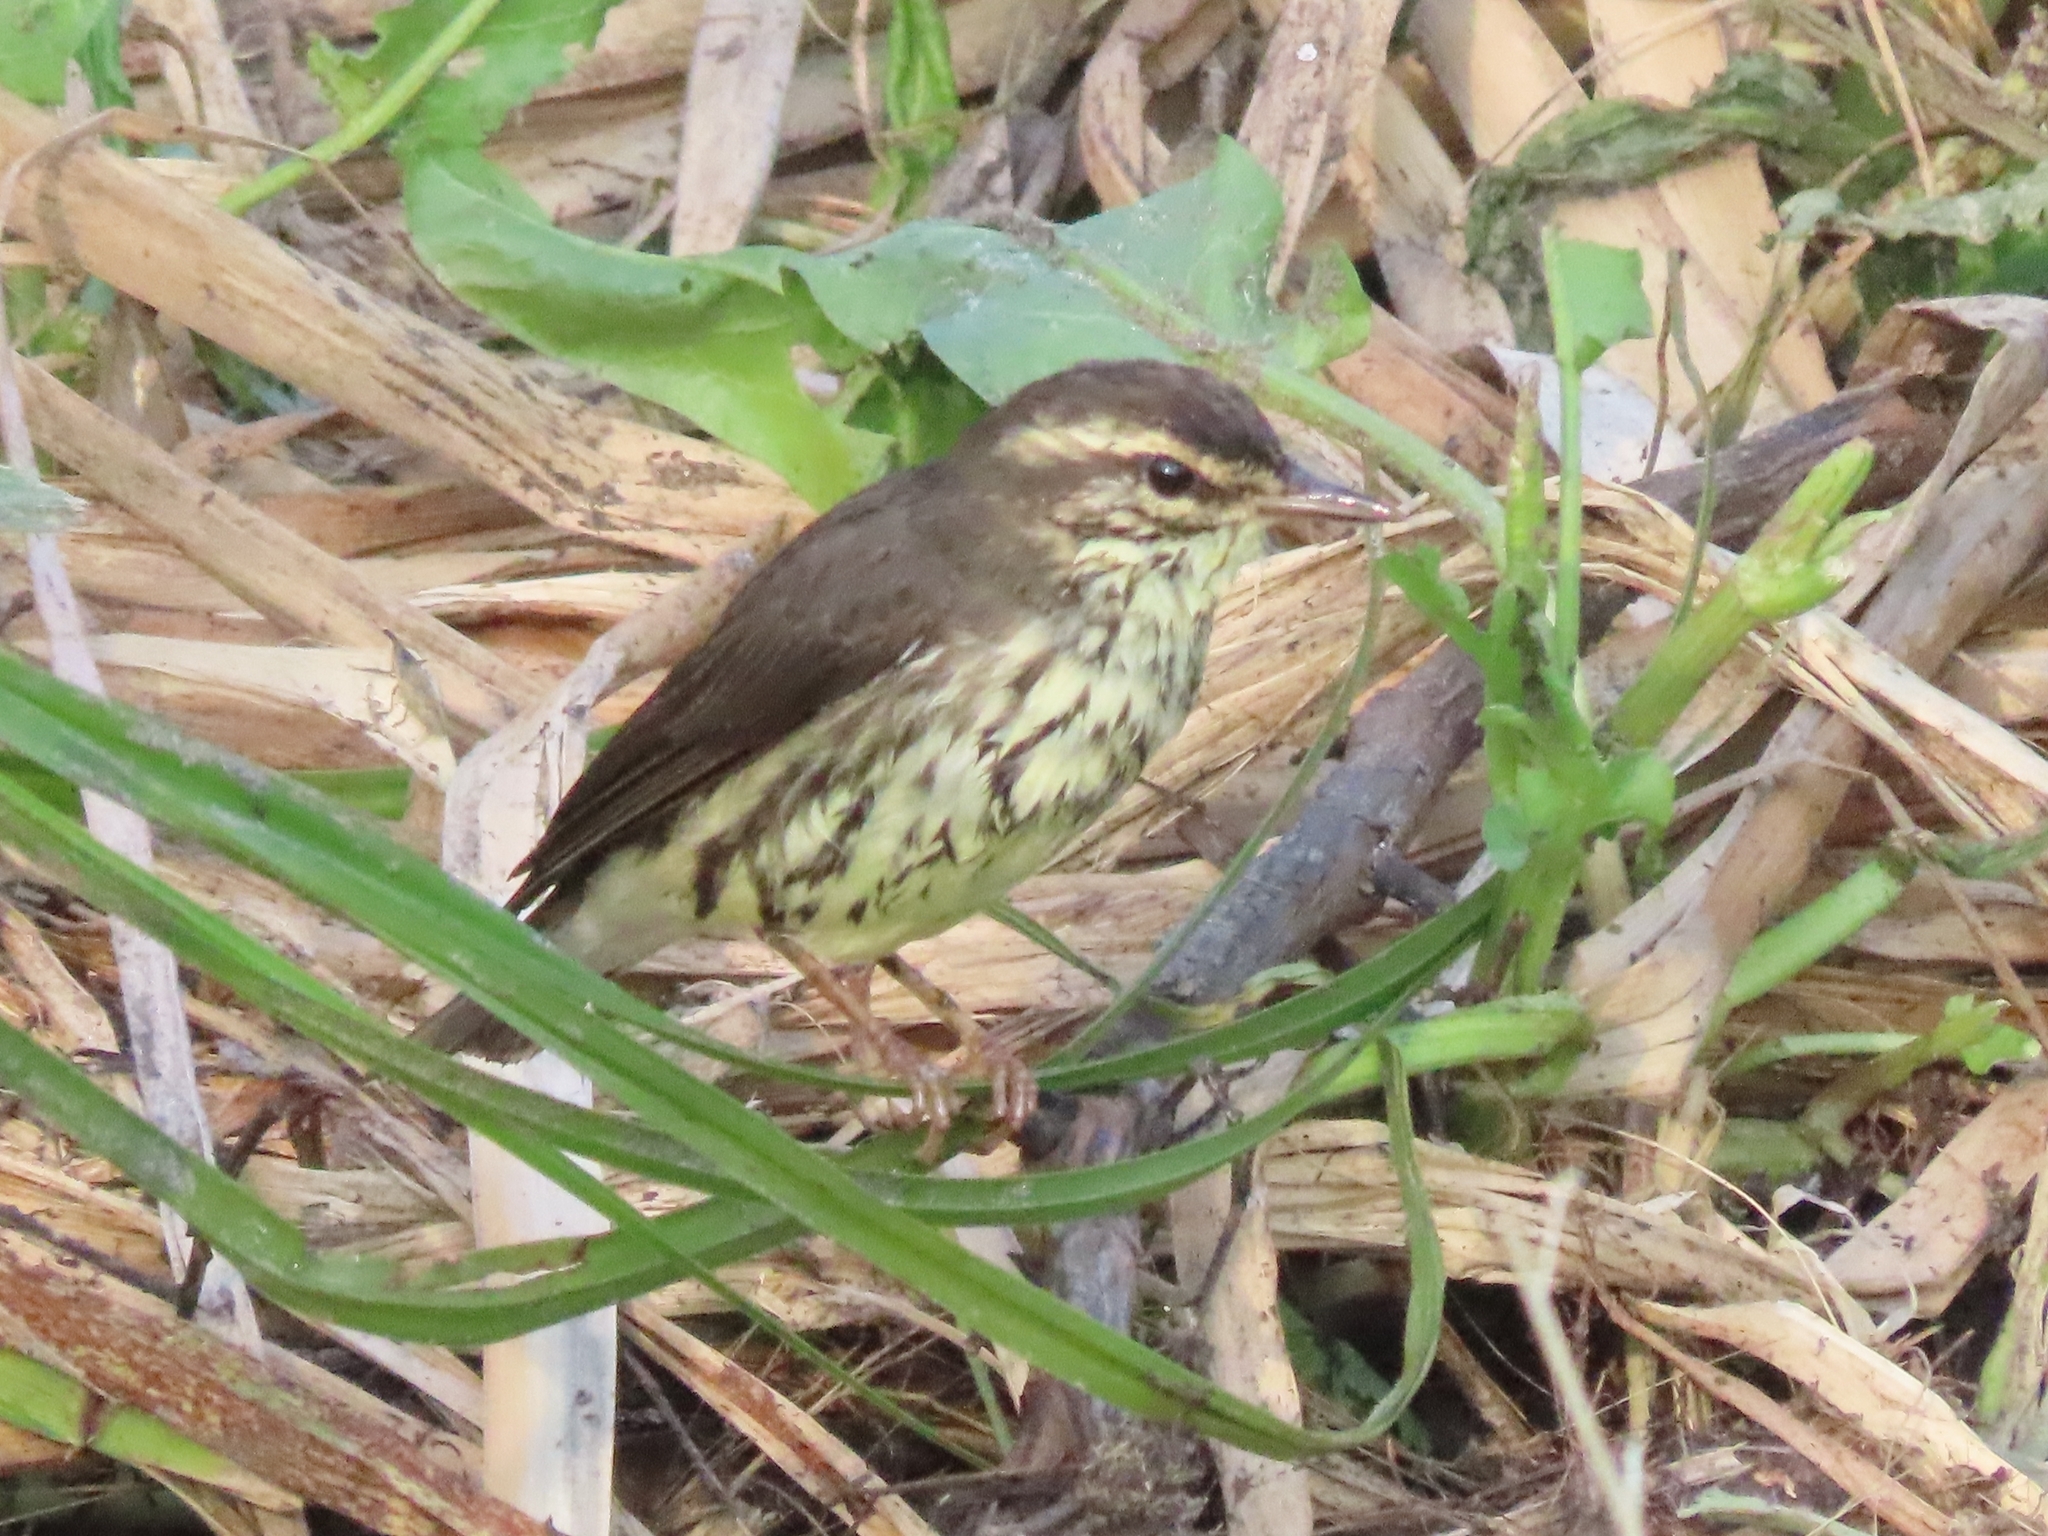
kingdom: Animalia
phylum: Chordata
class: Aves
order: Passeriformes
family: Parulidae
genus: Parkesia
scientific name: Parkesia noveboracensis
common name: Northern waterthrush
